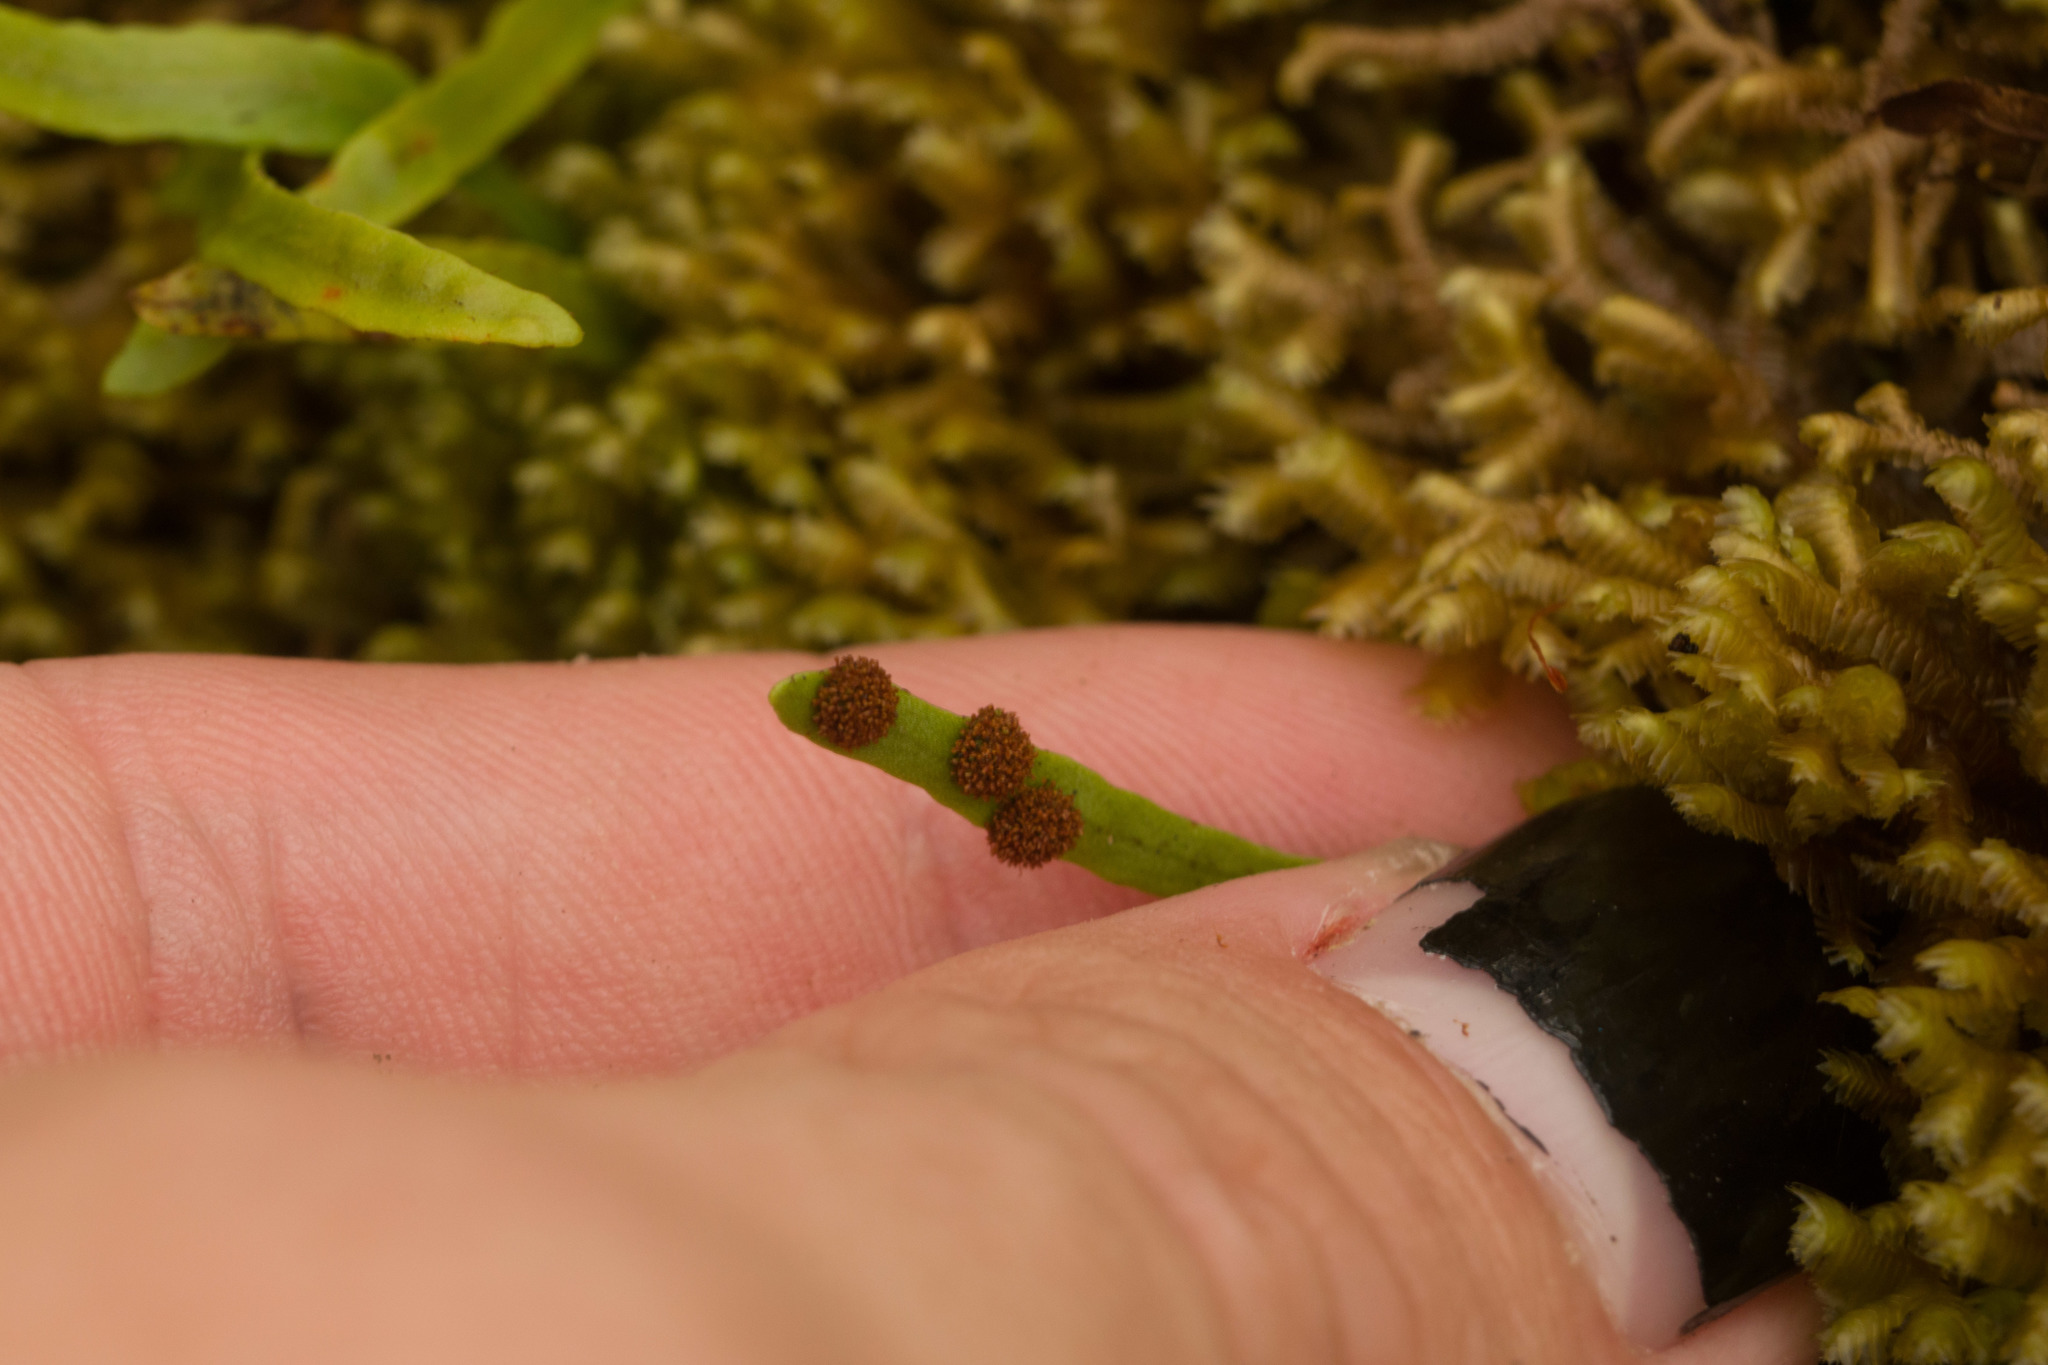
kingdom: Plantae
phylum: Tracheophyta
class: Polypodiopsida
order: Polypodiales
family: Polypodiaceae
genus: Adenophorus
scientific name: Adenophorus tenellus
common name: Kolokolo
